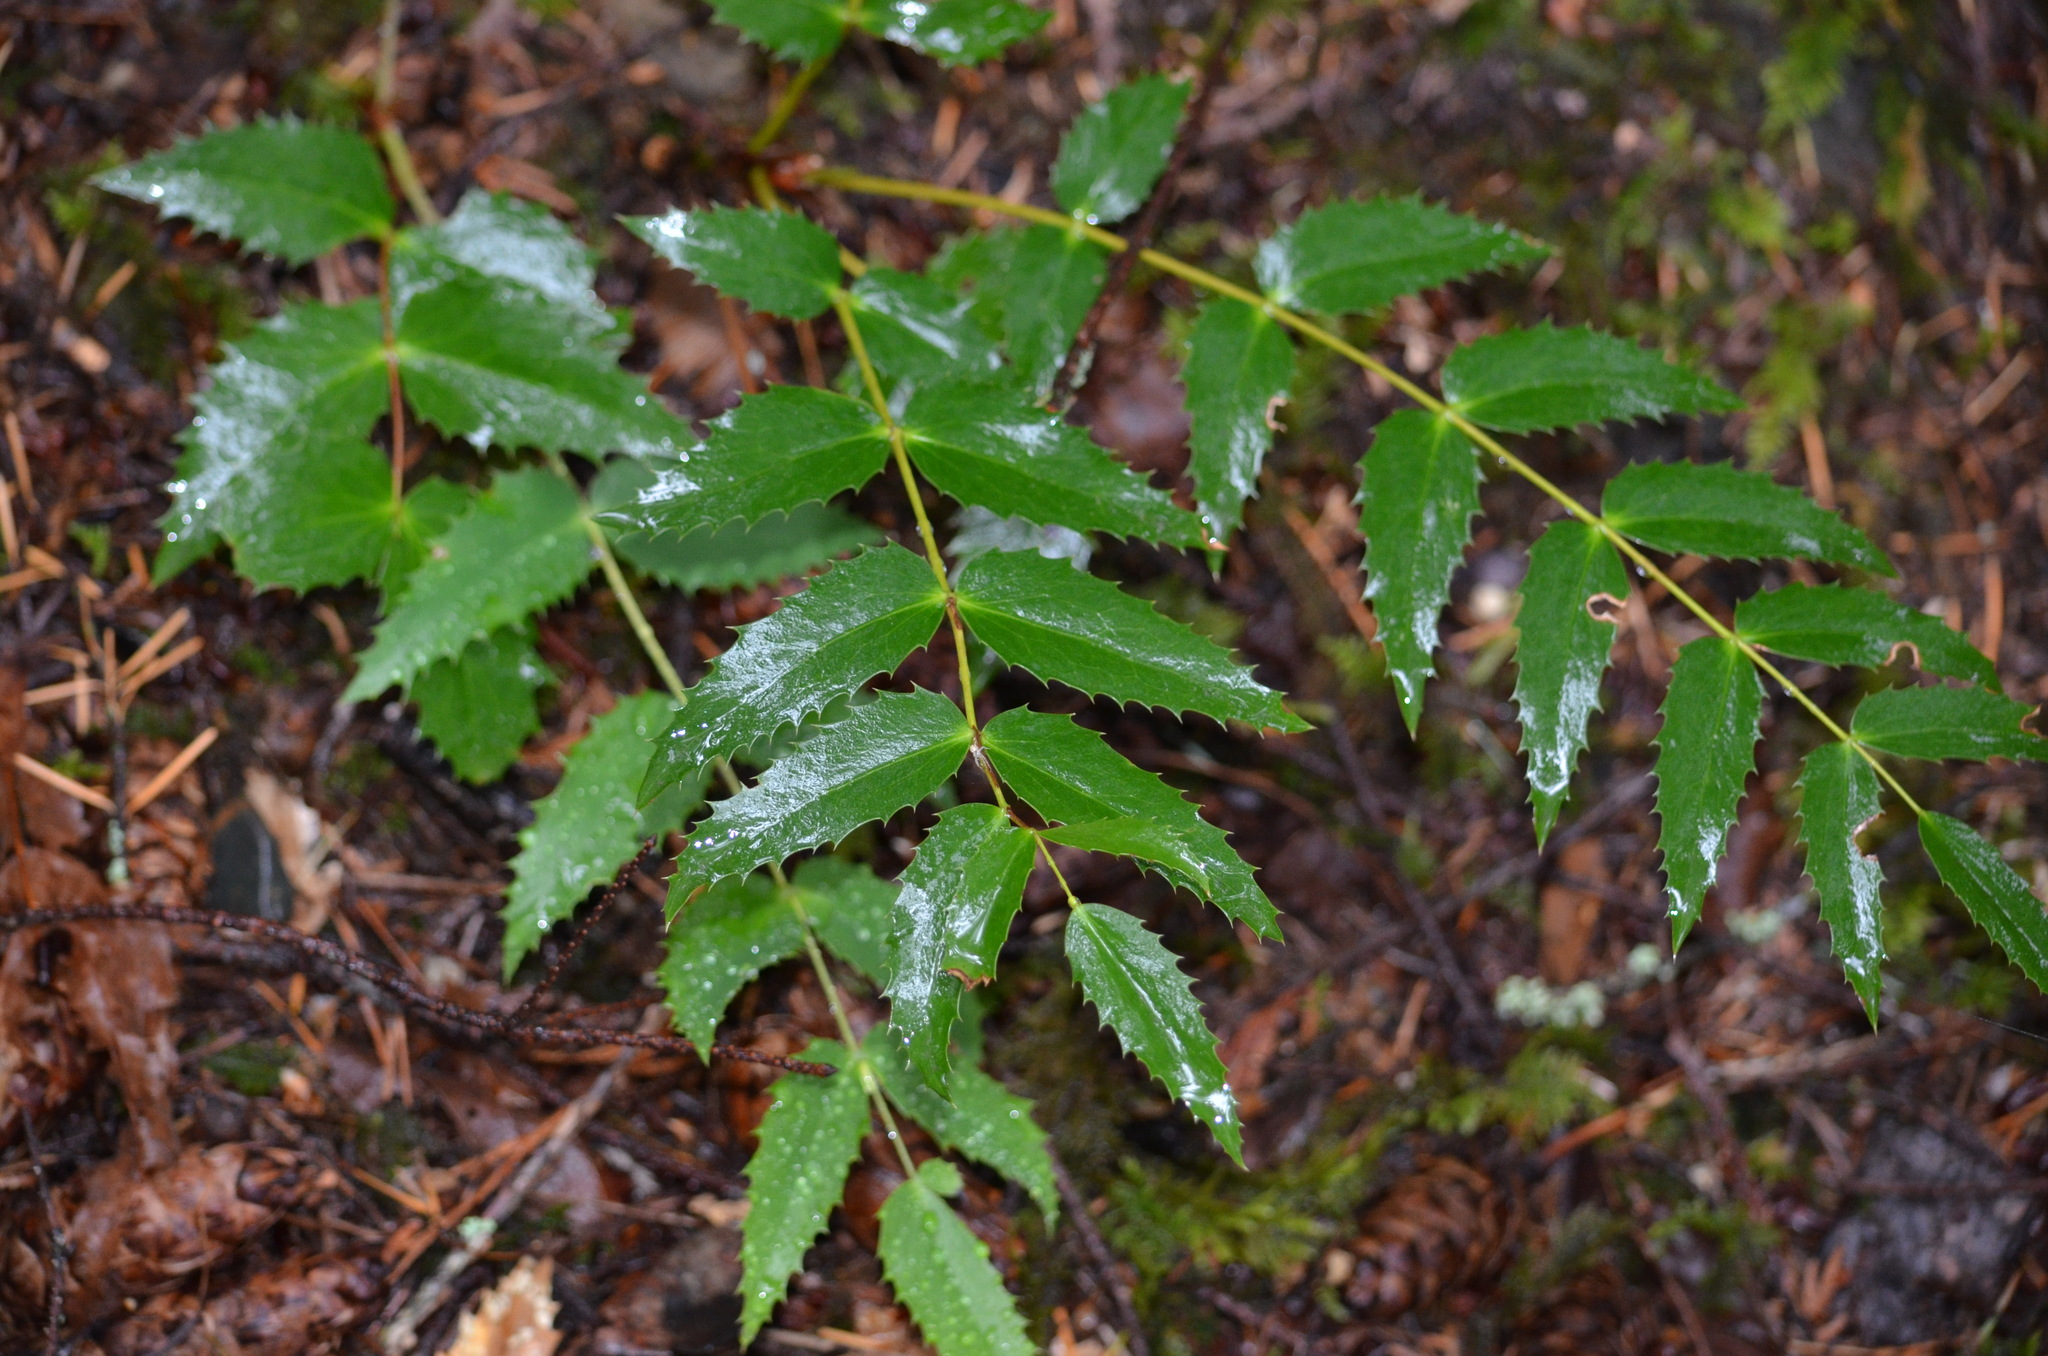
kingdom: Plantae
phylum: Tracheophyta
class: Magnoliopsida
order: Ranunculales
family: Berberidaceae
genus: Mahonia
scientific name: Mahonia nervosa
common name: Cascade oregon-grape
